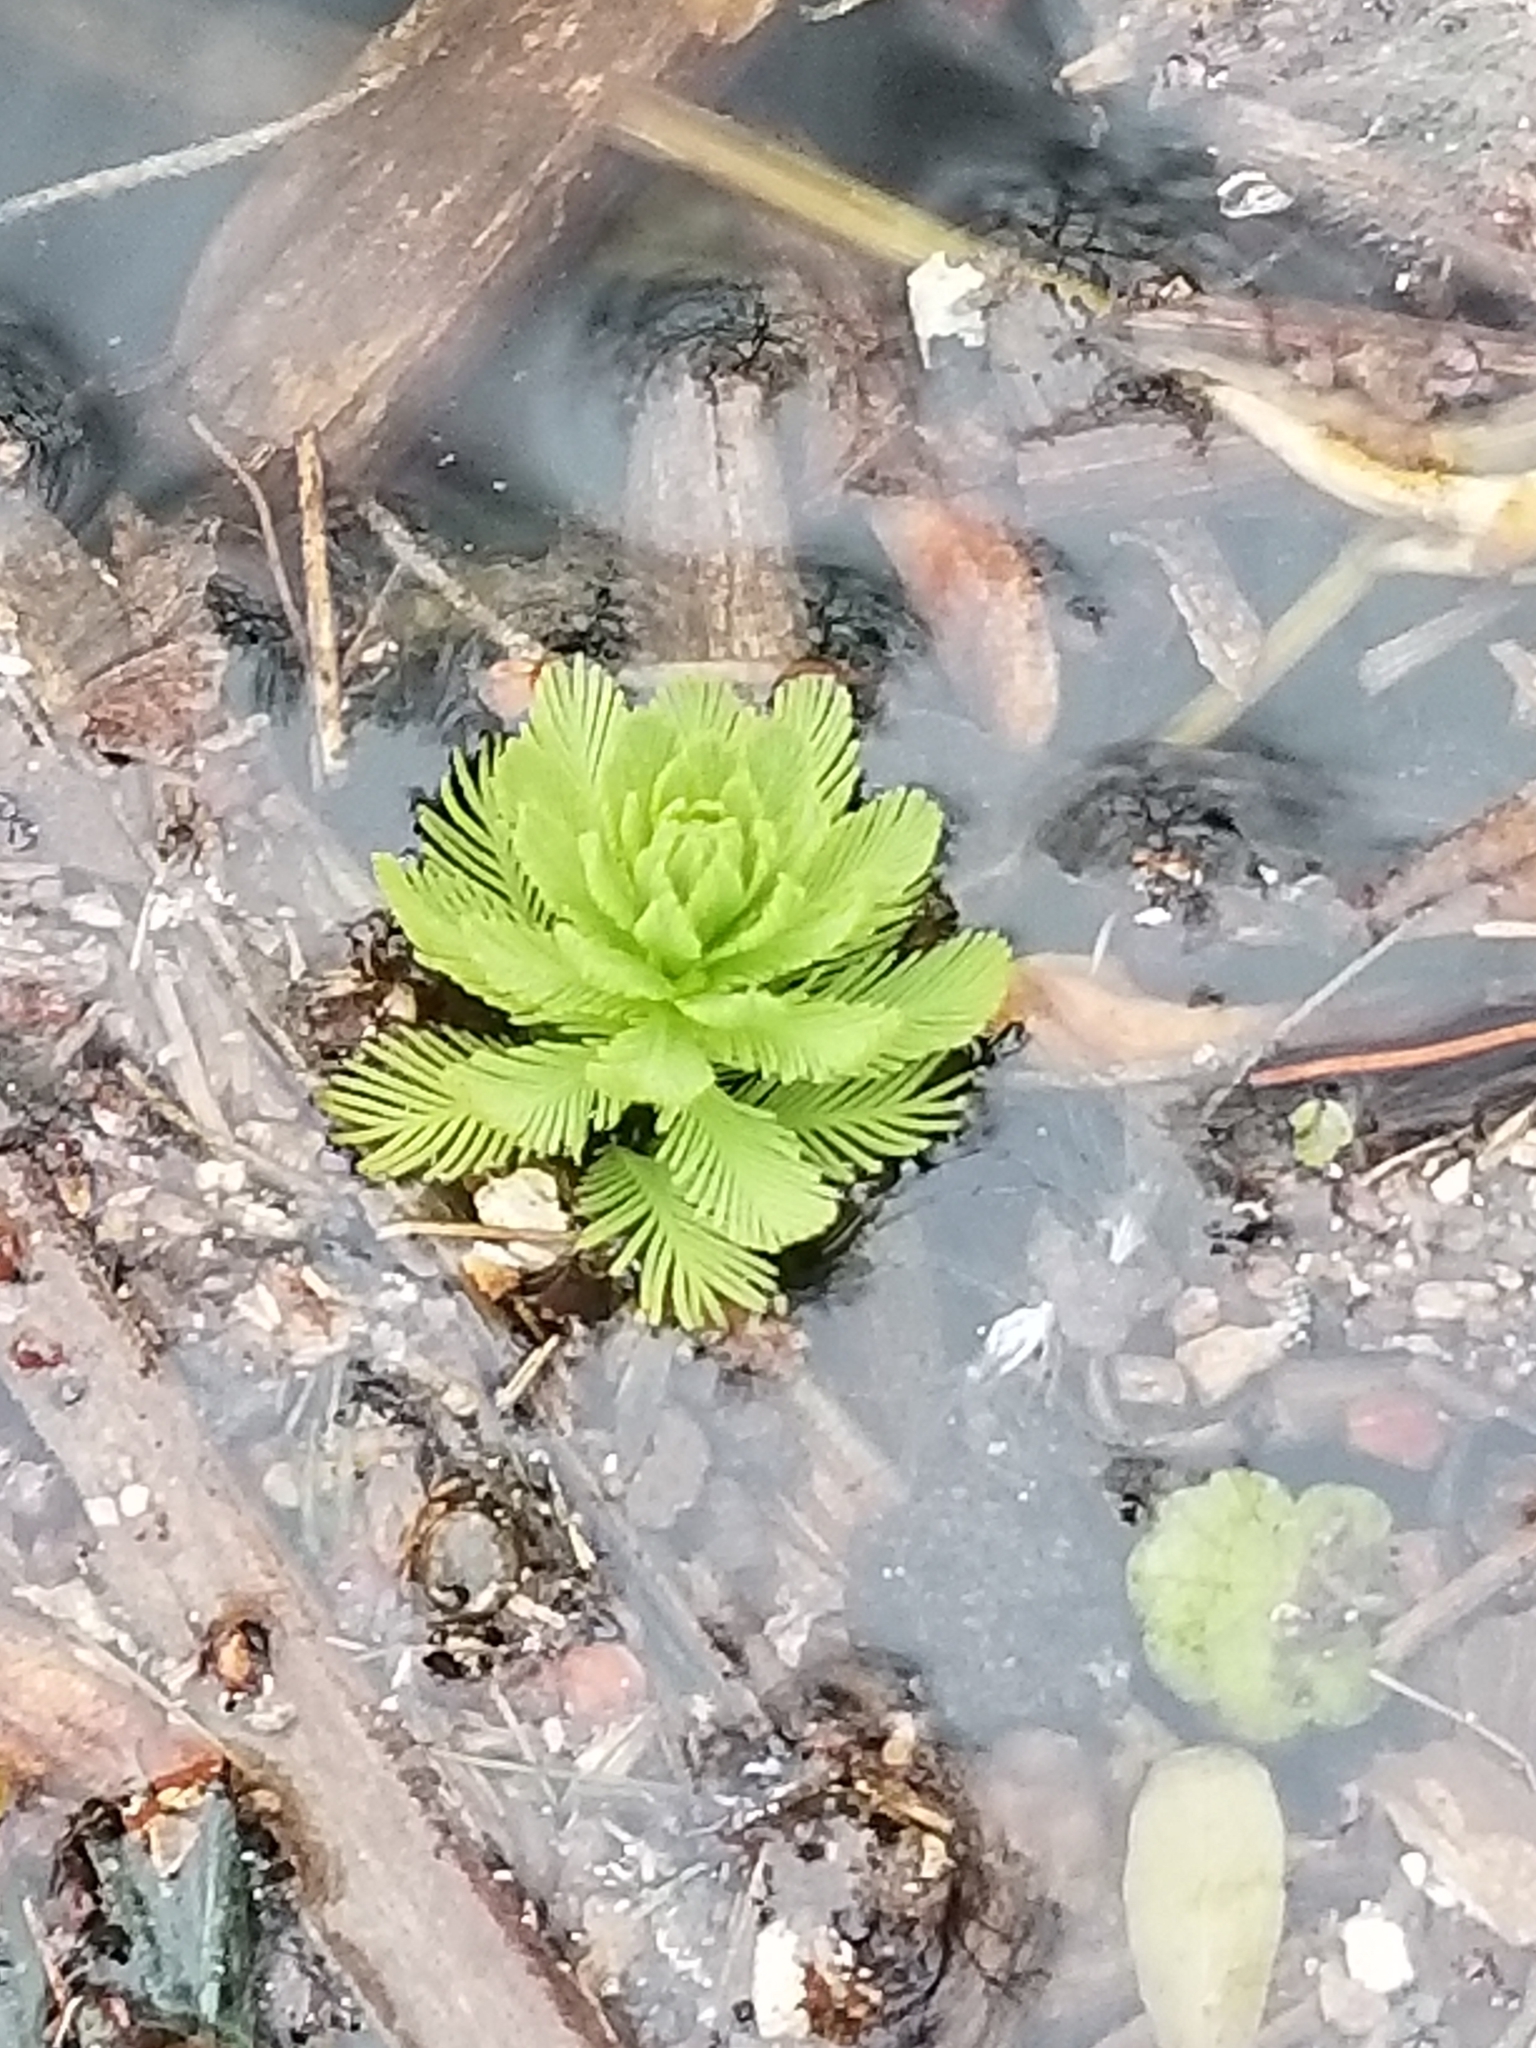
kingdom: Plantae
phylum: Tracheophyta
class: Magnoliopsida
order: Saxifragales
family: Haloragaceae
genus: Myriophyllum
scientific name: Myriophyllum aquaticum
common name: Parrot's feather
